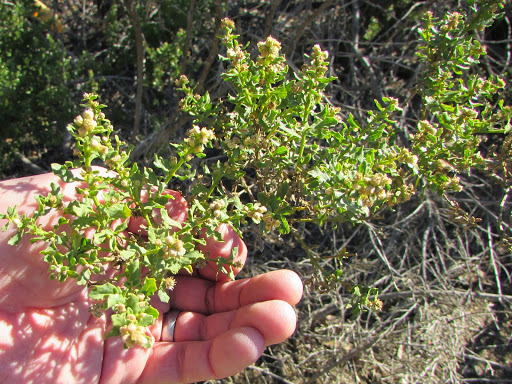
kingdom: Plantae
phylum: Tracheophyta
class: Magnoliopsida
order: Asterales
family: Asteraceae
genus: Baccharis
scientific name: Baccharis pilularis
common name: Coyotebrush
